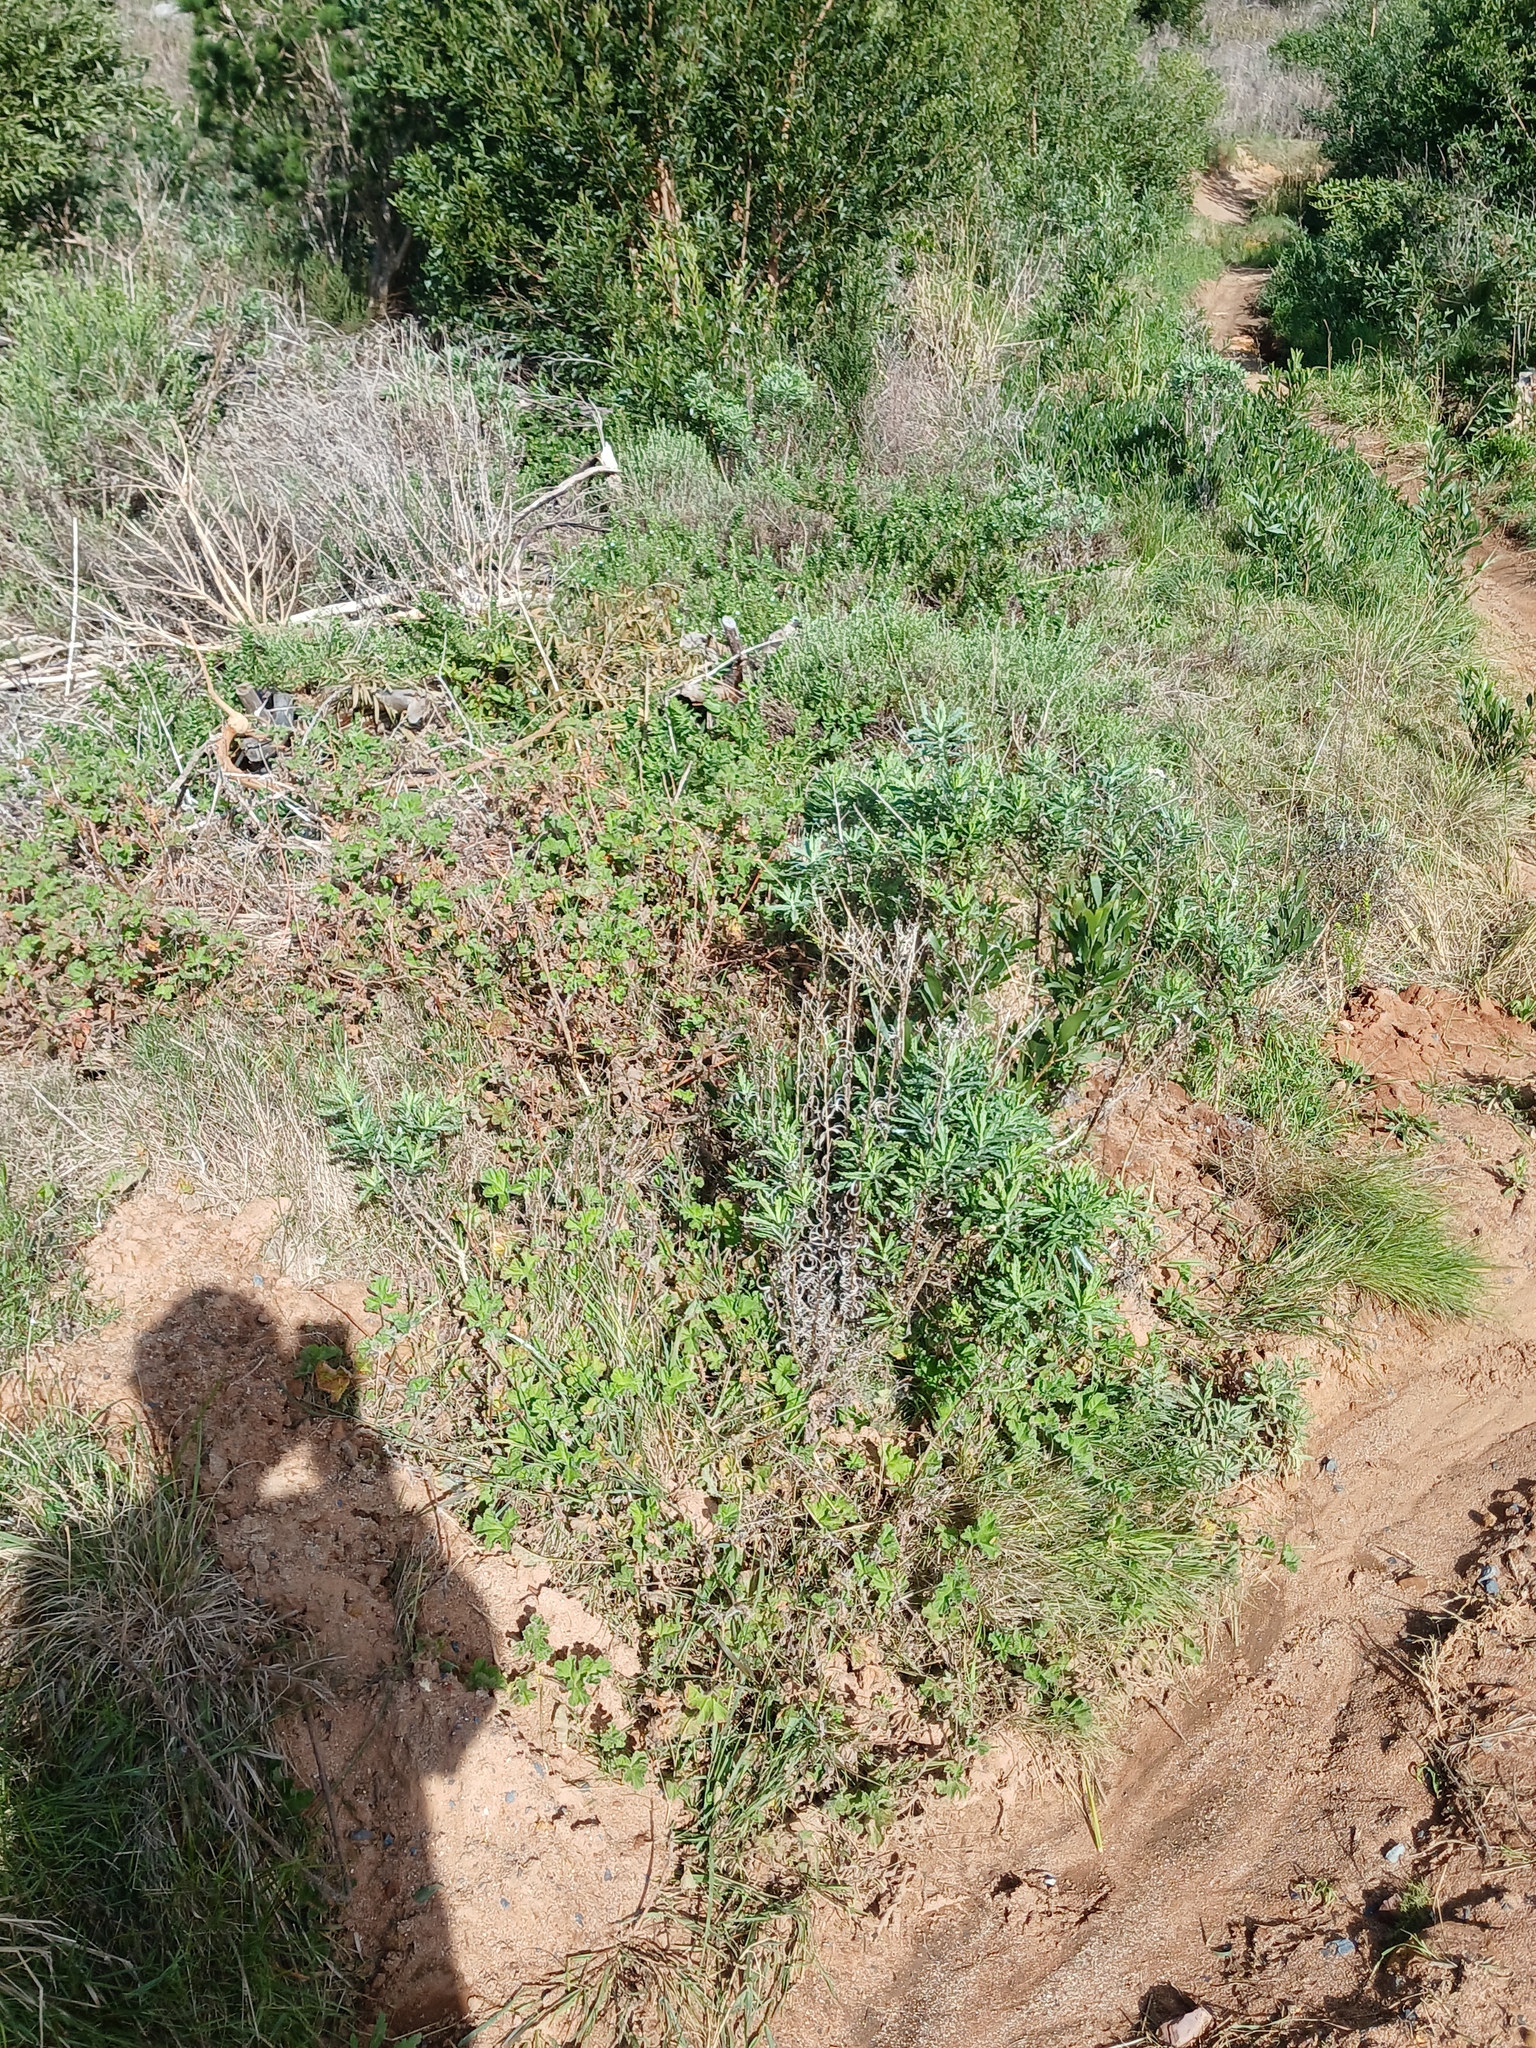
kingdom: Plantae
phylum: Tracheophyta
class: Magnoliopsida
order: Asterales
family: Asteraceae
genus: Senecio
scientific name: Senecio pterophorus
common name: Shoddy ragwort
